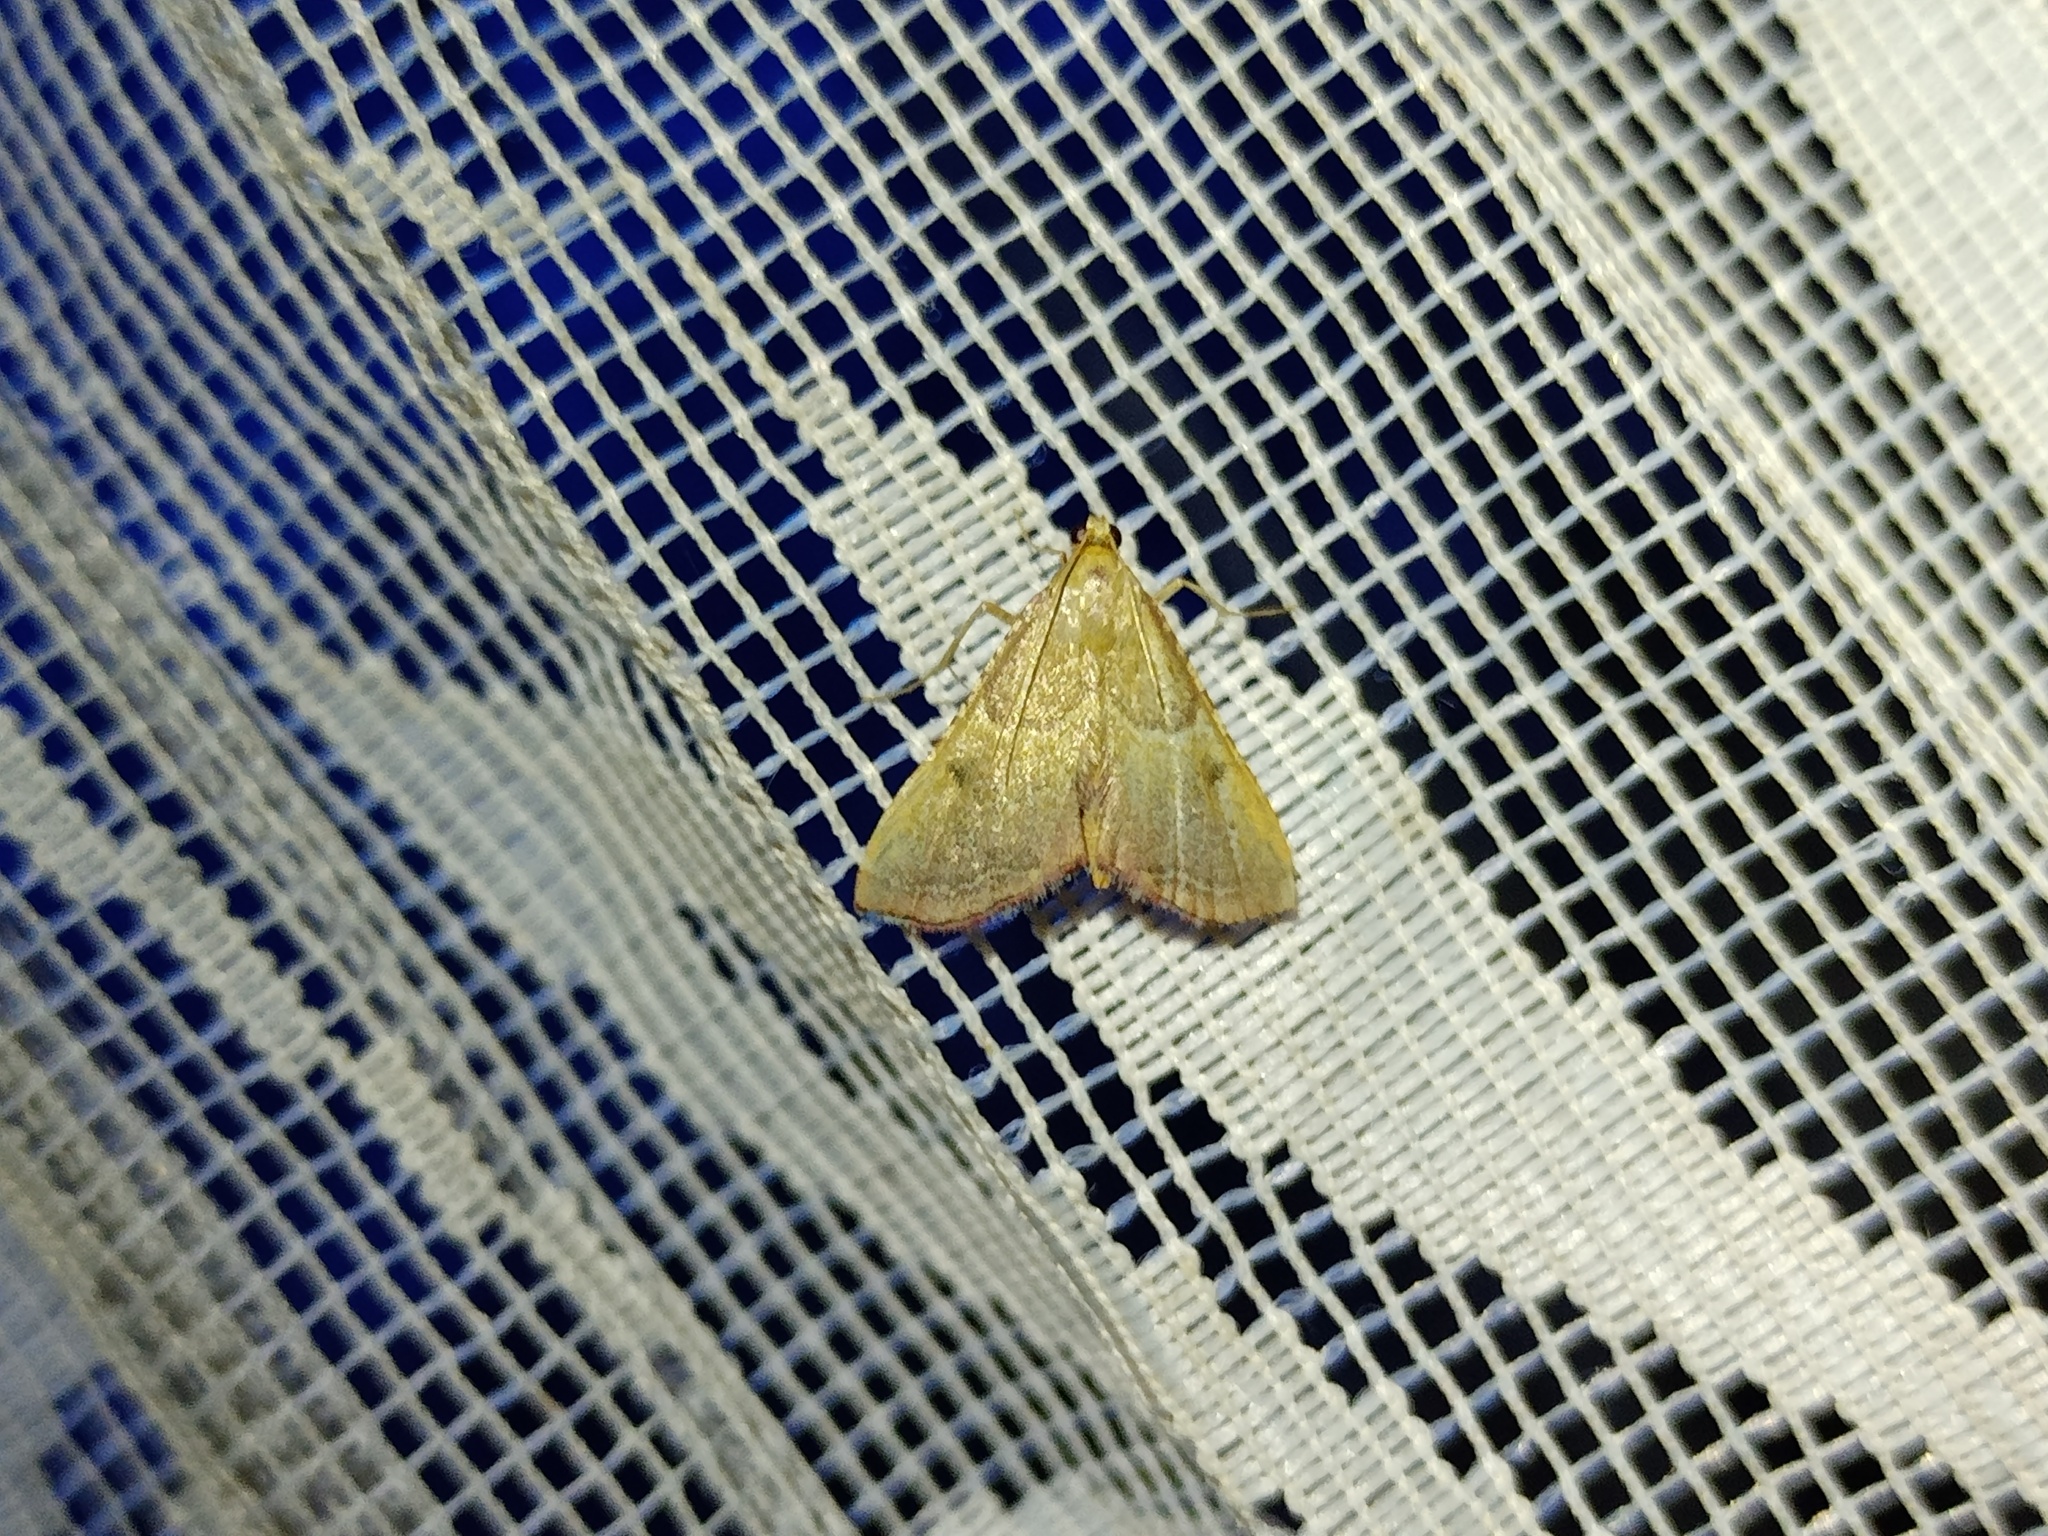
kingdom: Animalia
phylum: Arthropoda
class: Insecta
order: Lepidoptera
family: Pyralidae
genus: Endotricha
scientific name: Endotricha flammealis
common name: Rosy tabby
